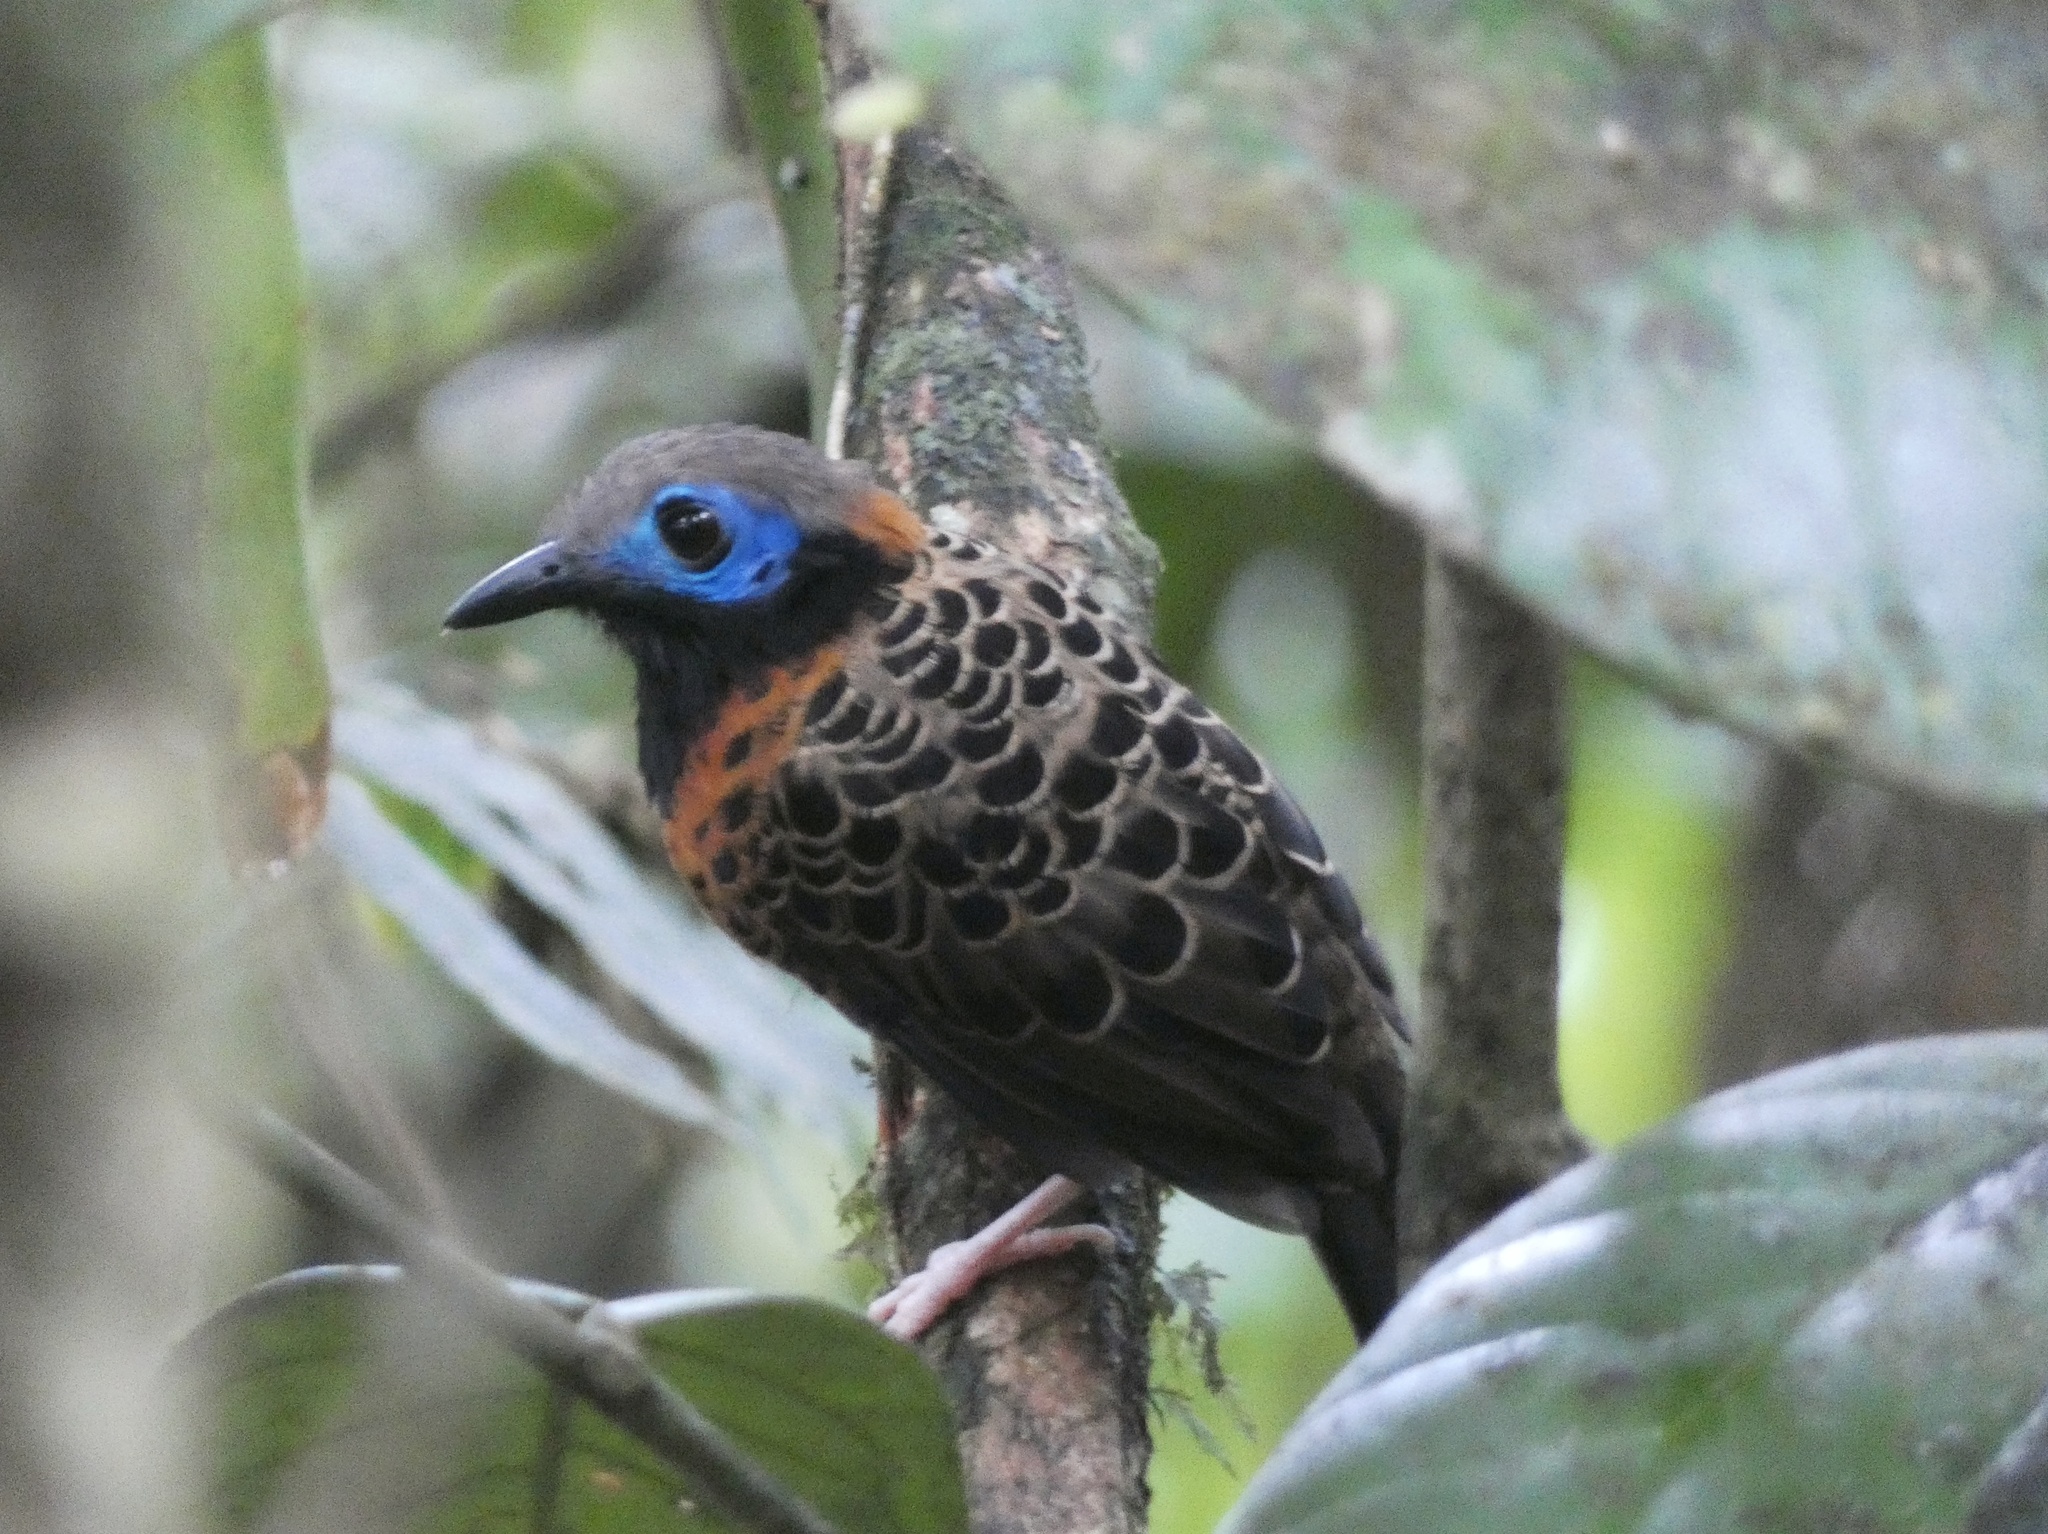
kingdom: Animalia
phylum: Chordata
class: Aves
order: Passeriformes
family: Thamnophilidae
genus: Phaenostictus
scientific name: Phaenostictus mcleannani
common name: Ocellated antbird
